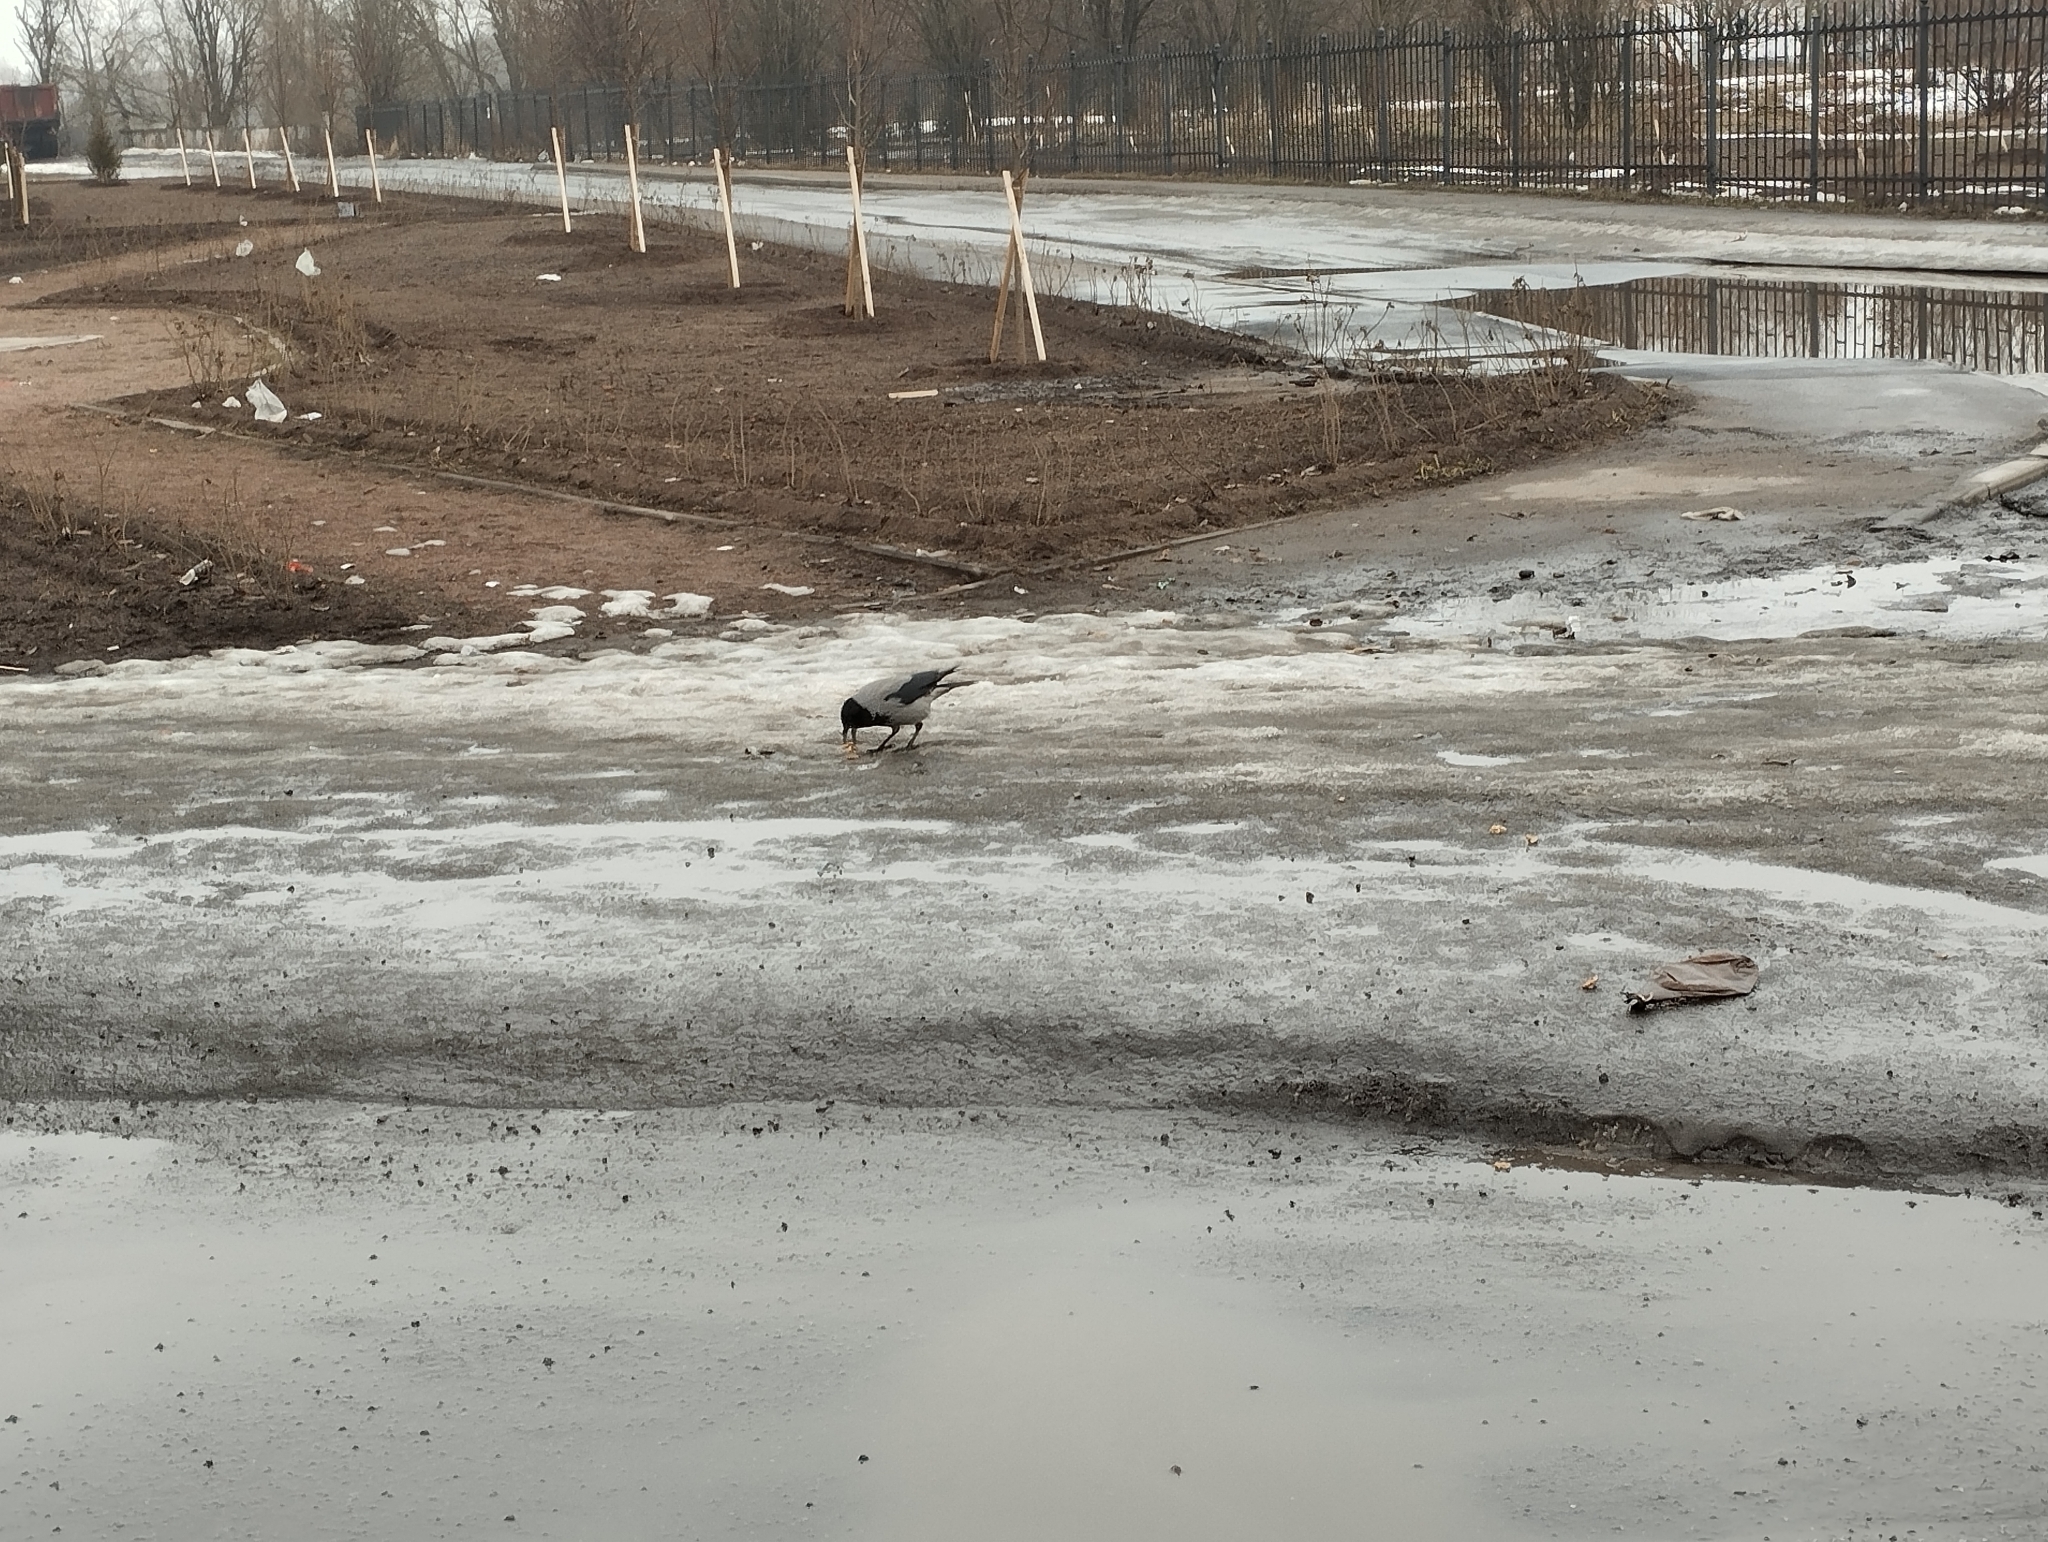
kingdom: Animalia
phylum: Chordata
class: Aves
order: Passeriformes
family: Corvidae
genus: Corvus
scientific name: Corvus cornix
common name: Hooded crow
